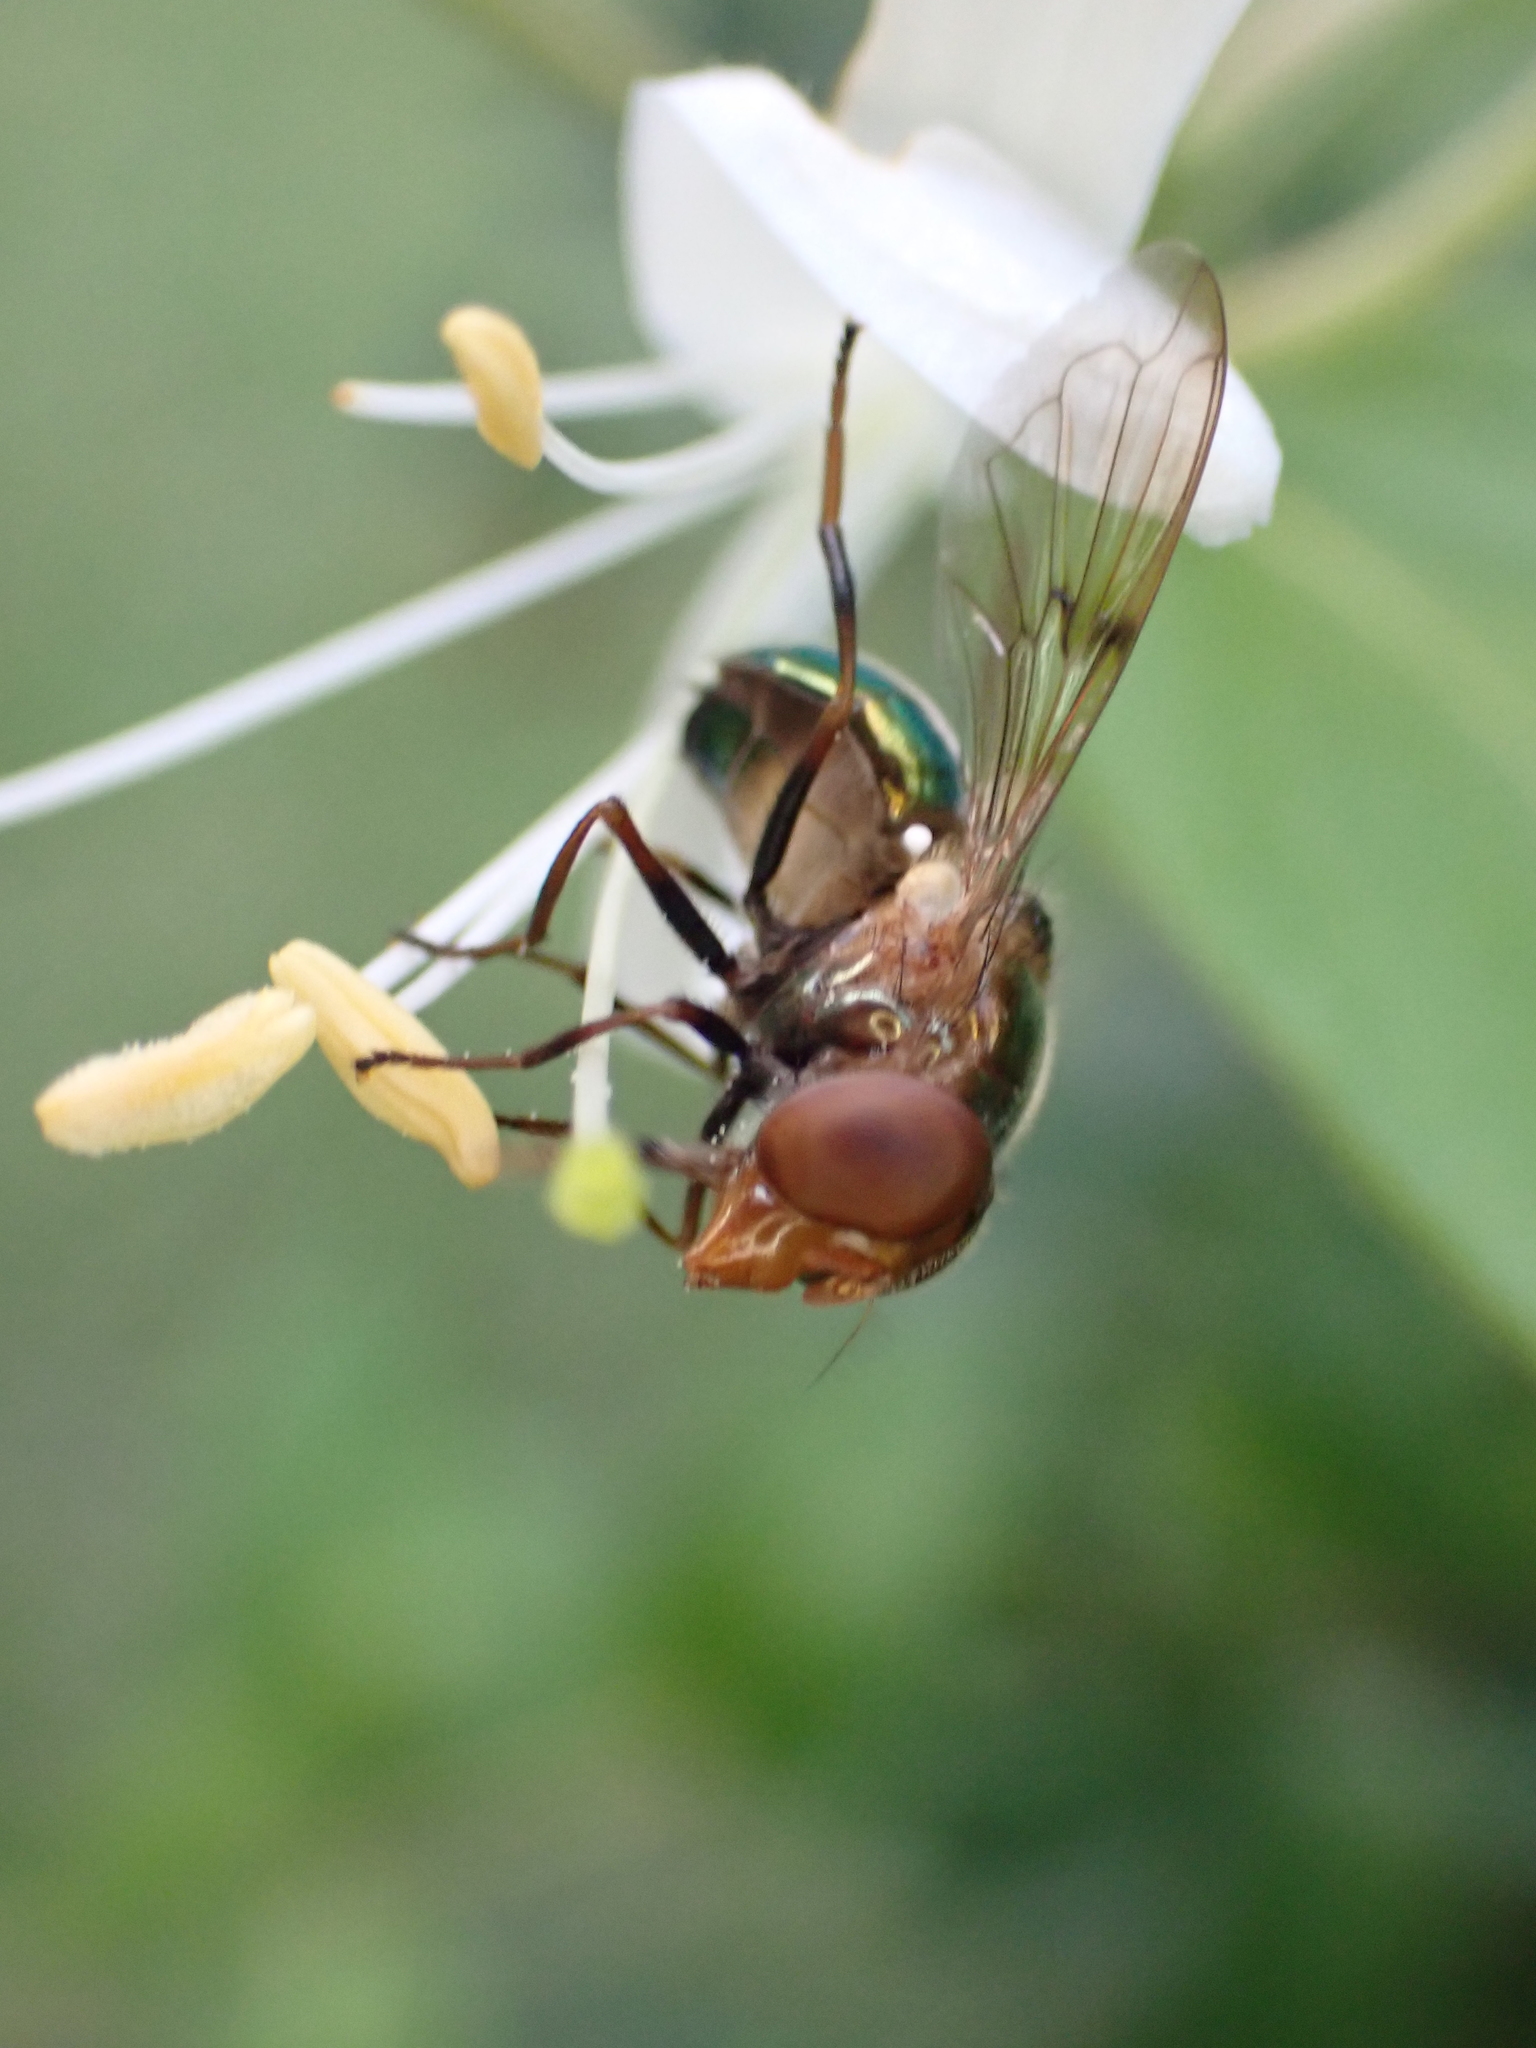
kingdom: Animalia
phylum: Arthropoda
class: Insecta
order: Diptera
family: Syrphidae
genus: Copestylum
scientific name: Copestylum vesicularium
